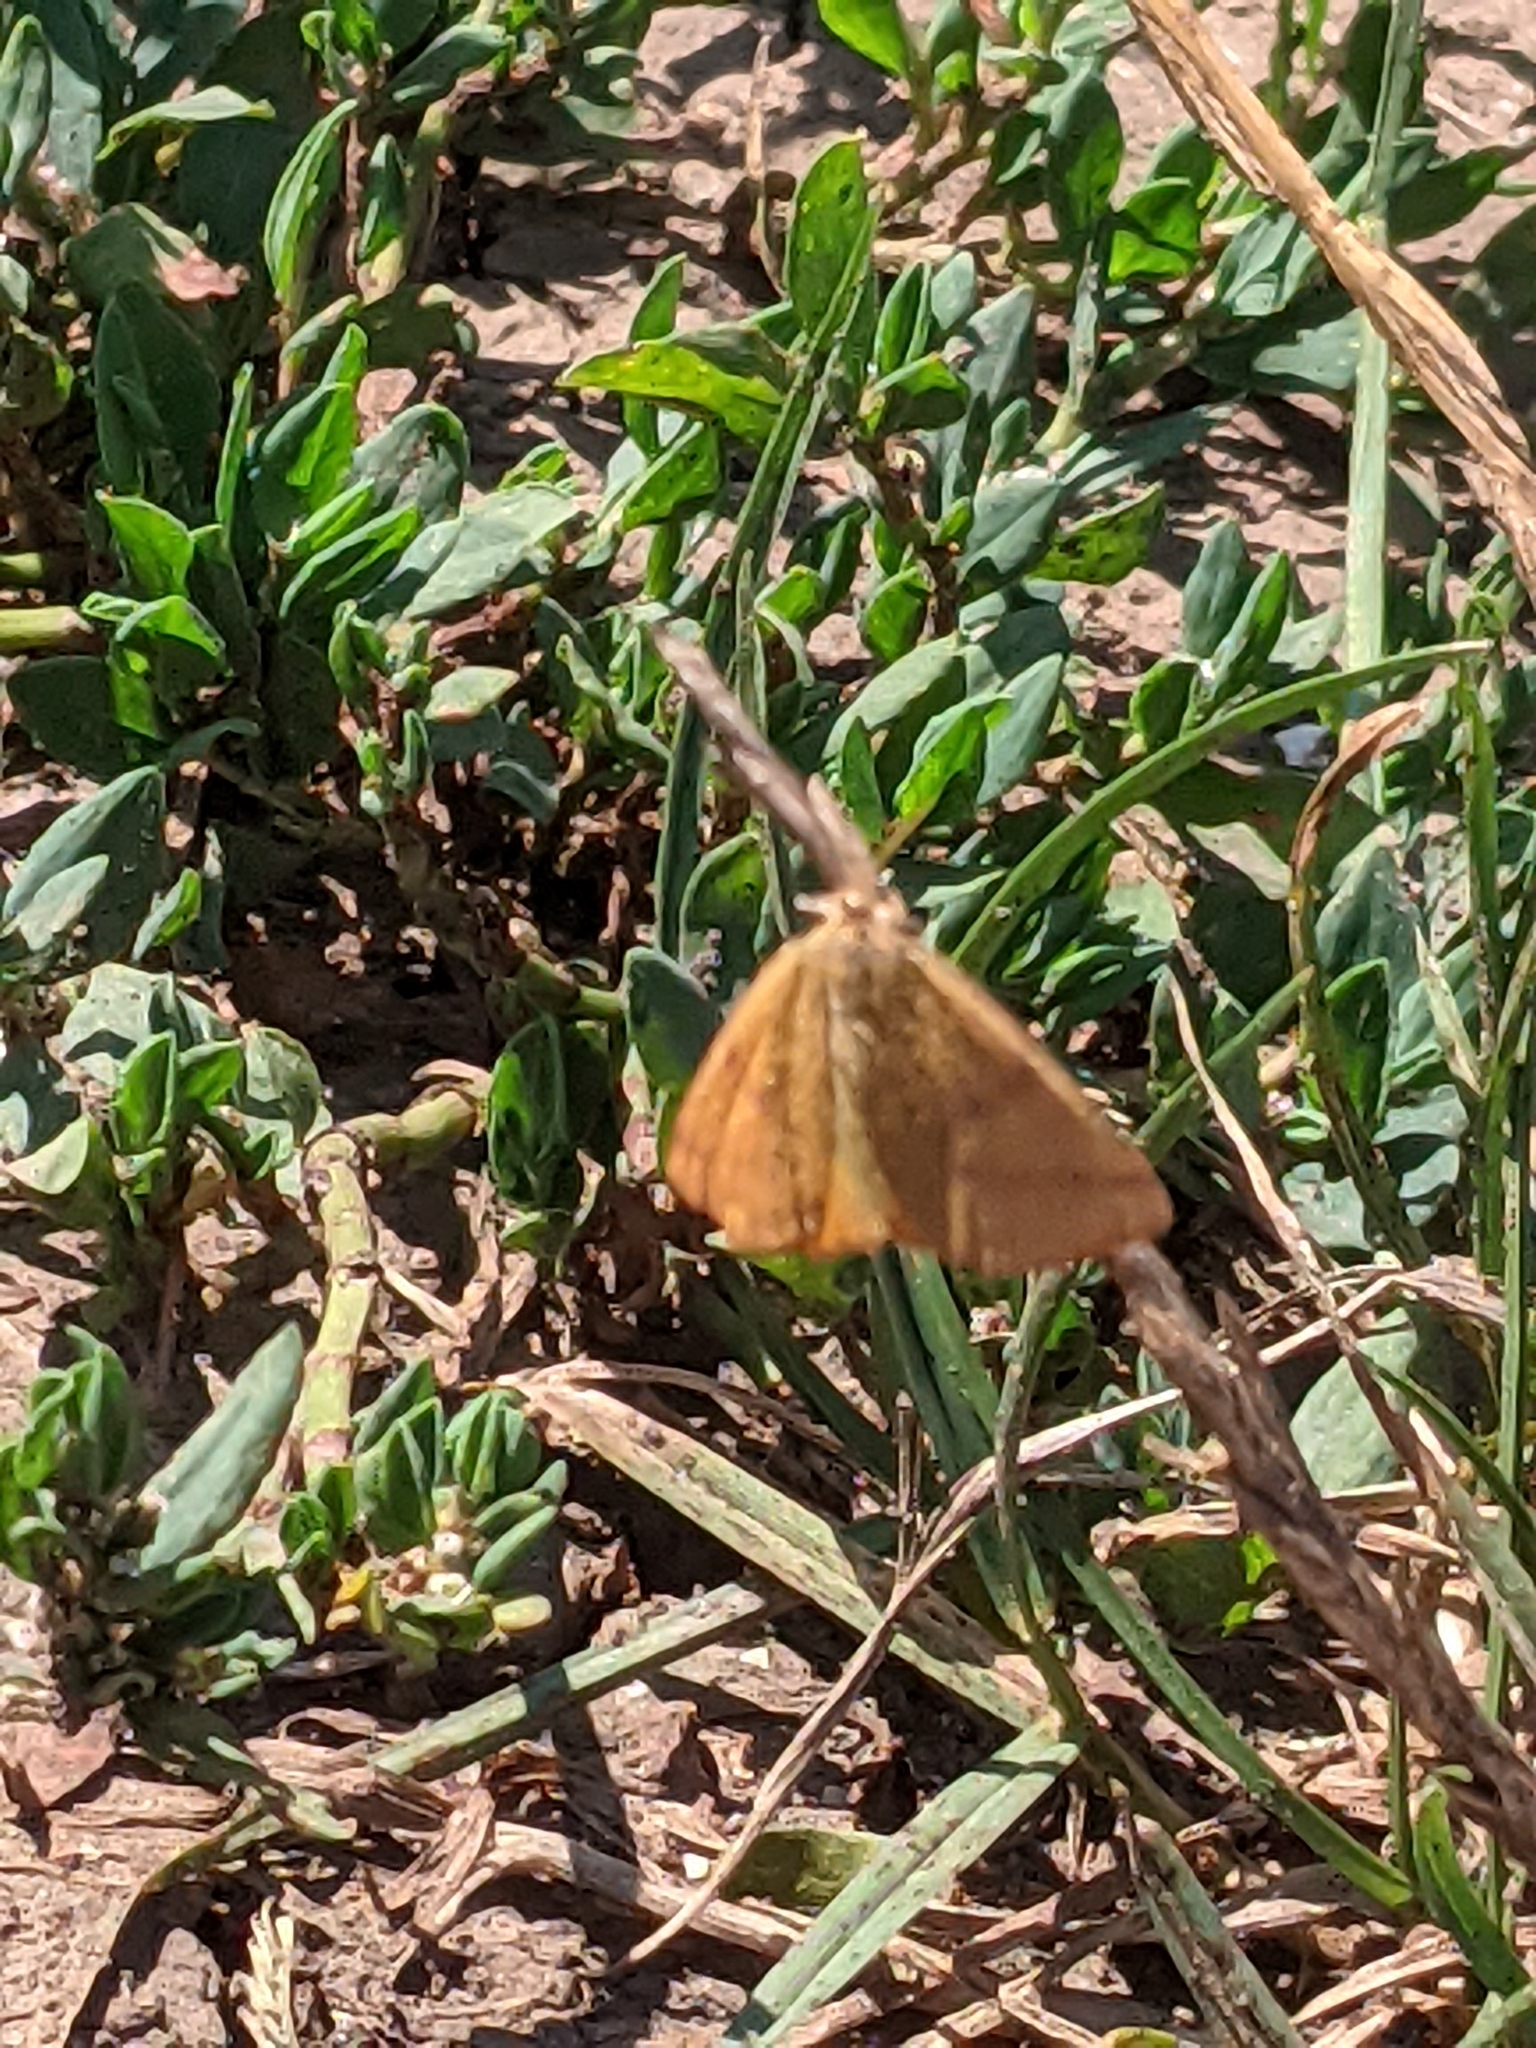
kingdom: Animalia
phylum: Arthropoda
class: Insecta
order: Lepidoptera
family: Geometridae
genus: Lythria
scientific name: Lythria purpuraria
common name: Purple-barred yellow
